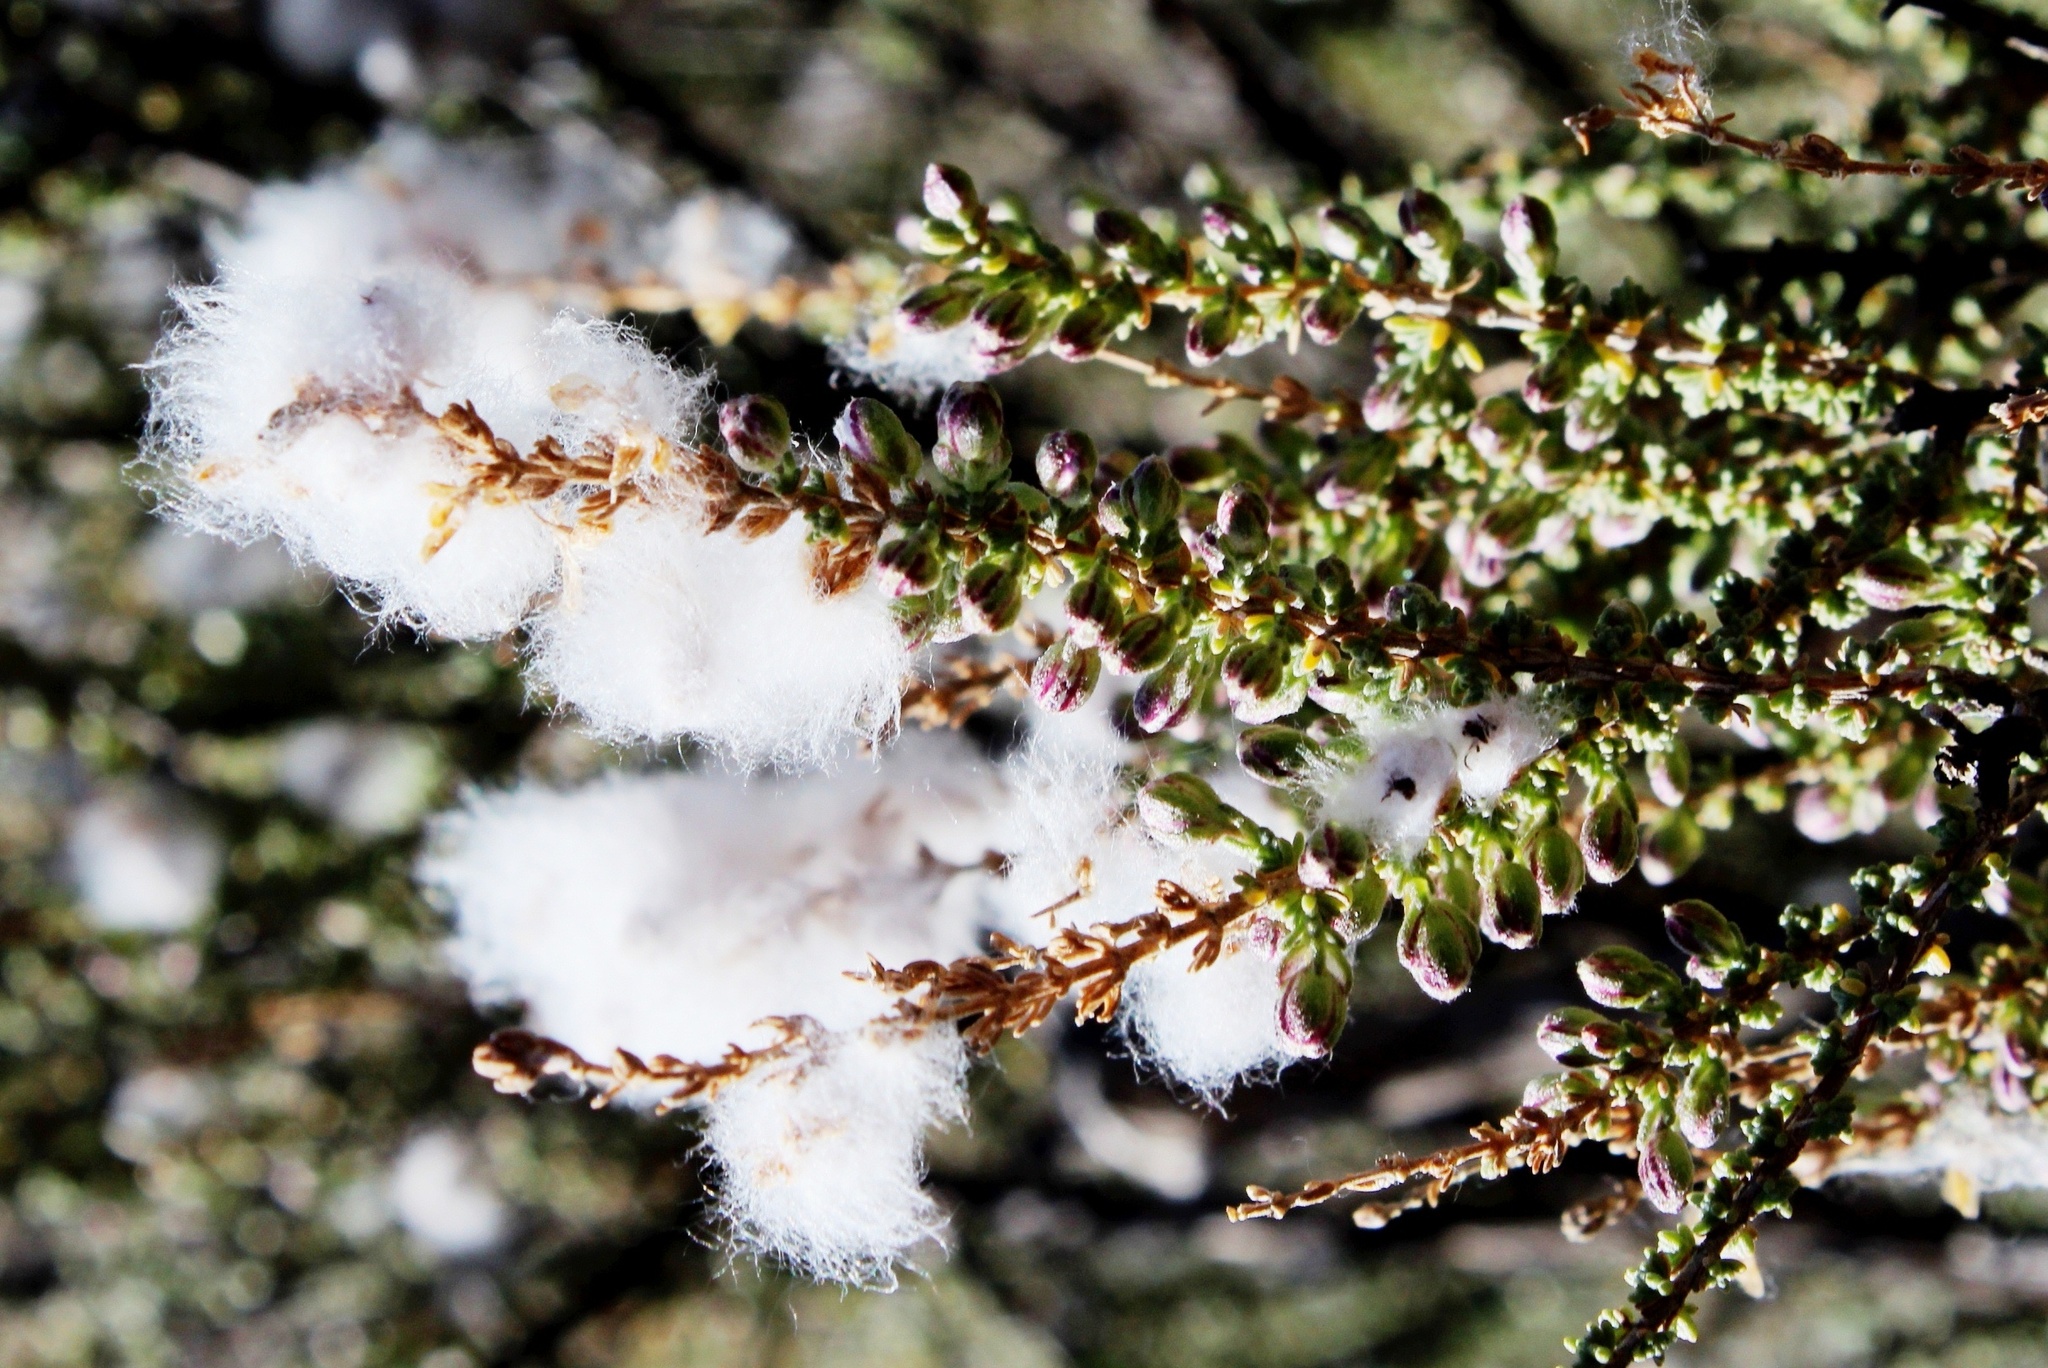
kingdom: Plantae
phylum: Tracheophyta
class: Magnoliopsida
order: Asterales
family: Asteraceae
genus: Eriocephalus
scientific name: Eriocephalus merxmuelleri
